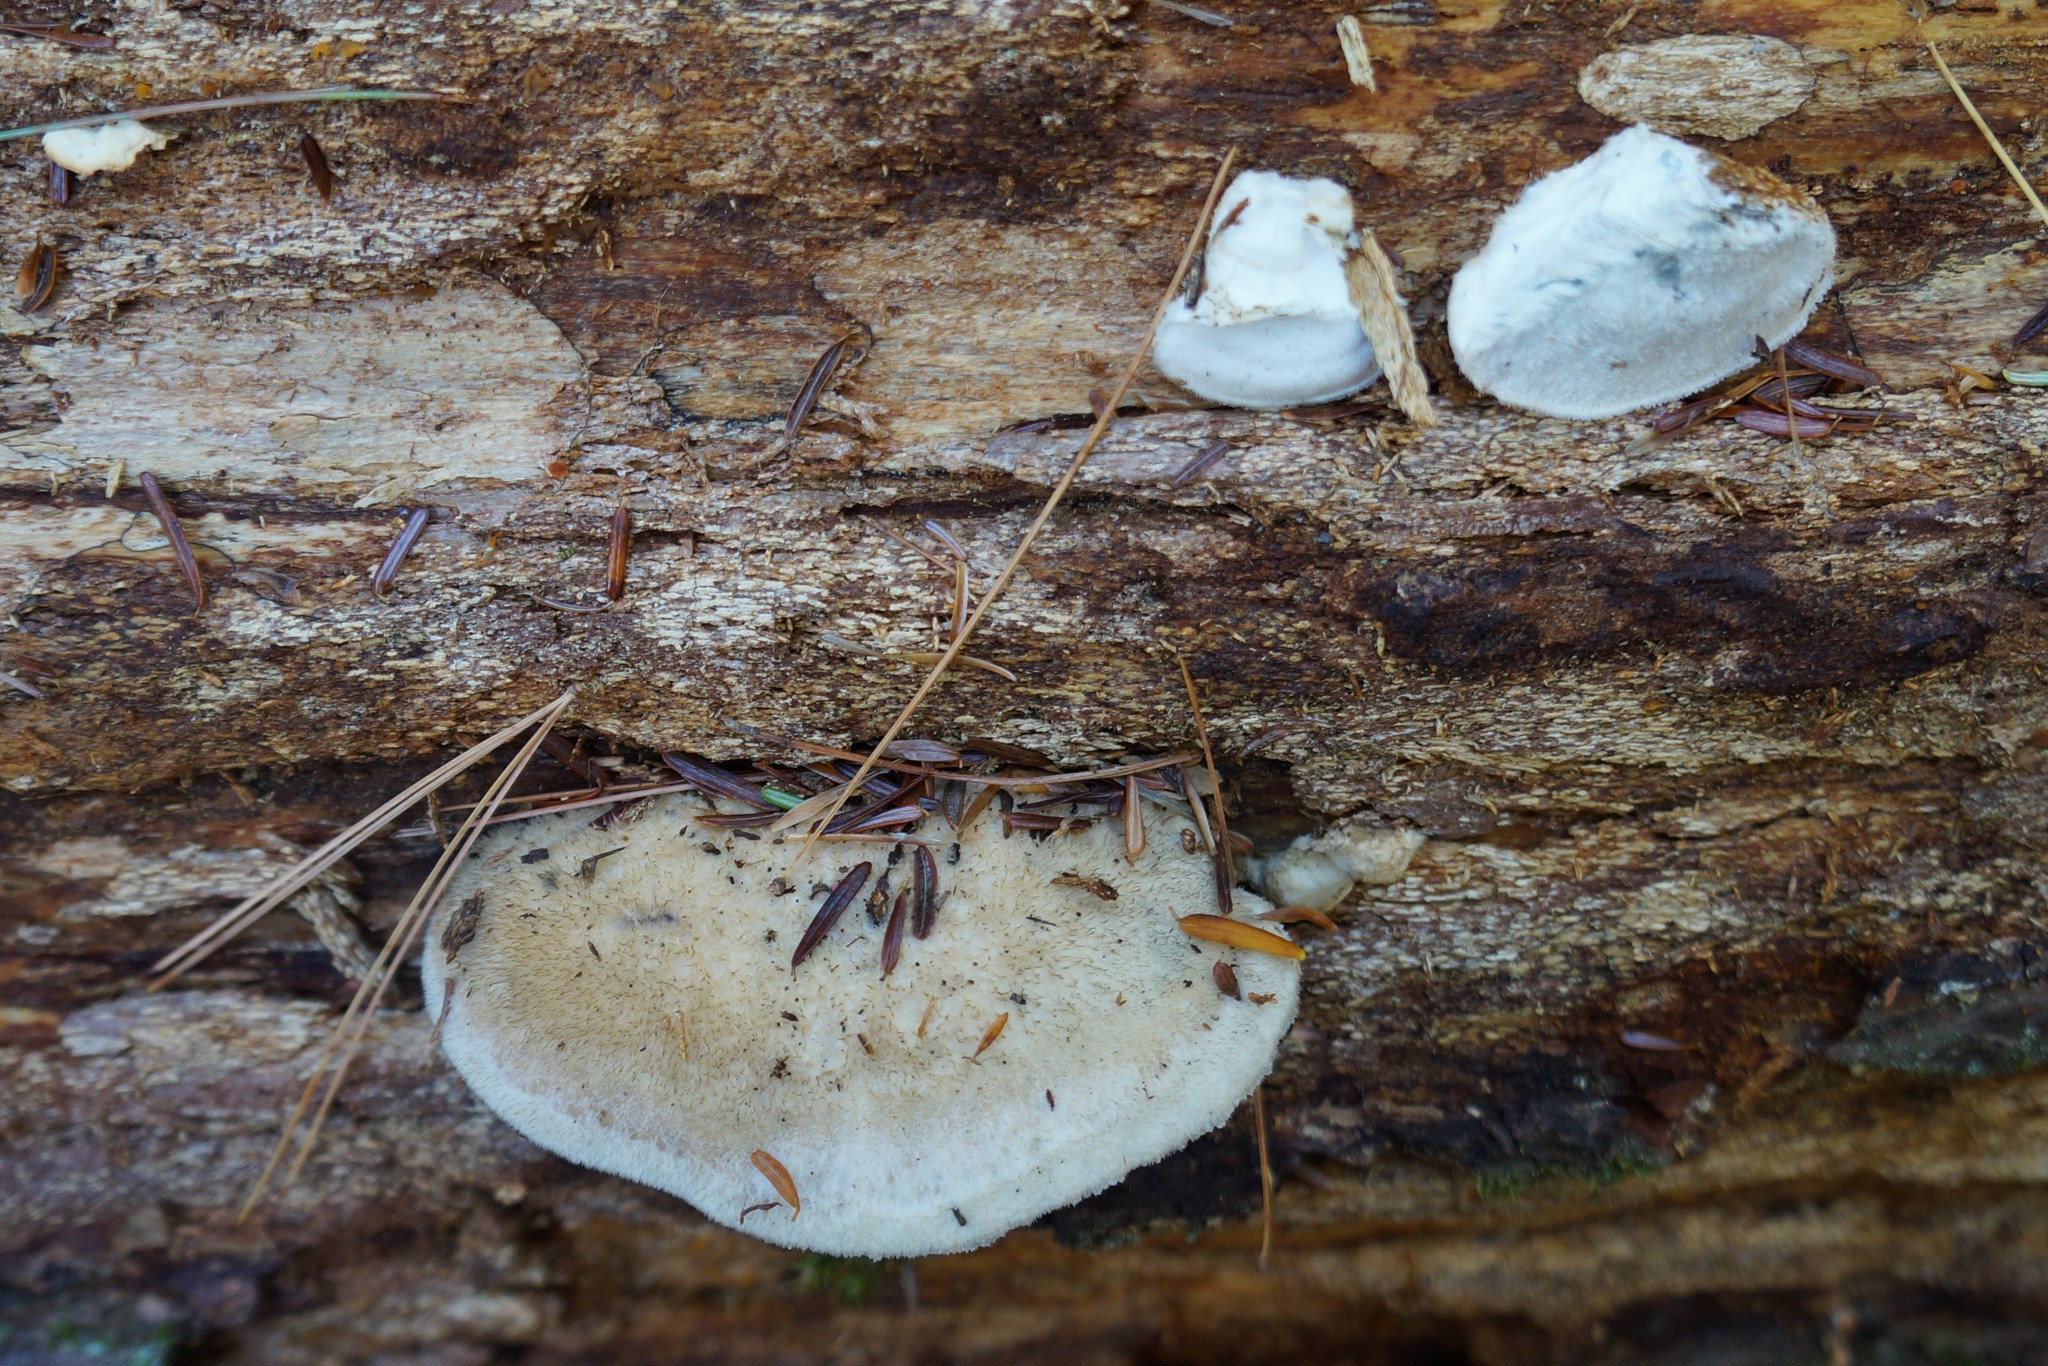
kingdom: Fungi
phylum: Basidiomycota
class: Agaricomycetes
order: Polyporales
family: Polyporaceae
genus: Cyanosporus
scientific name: Cyanosporus caesius
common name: Blue cheese polypore
